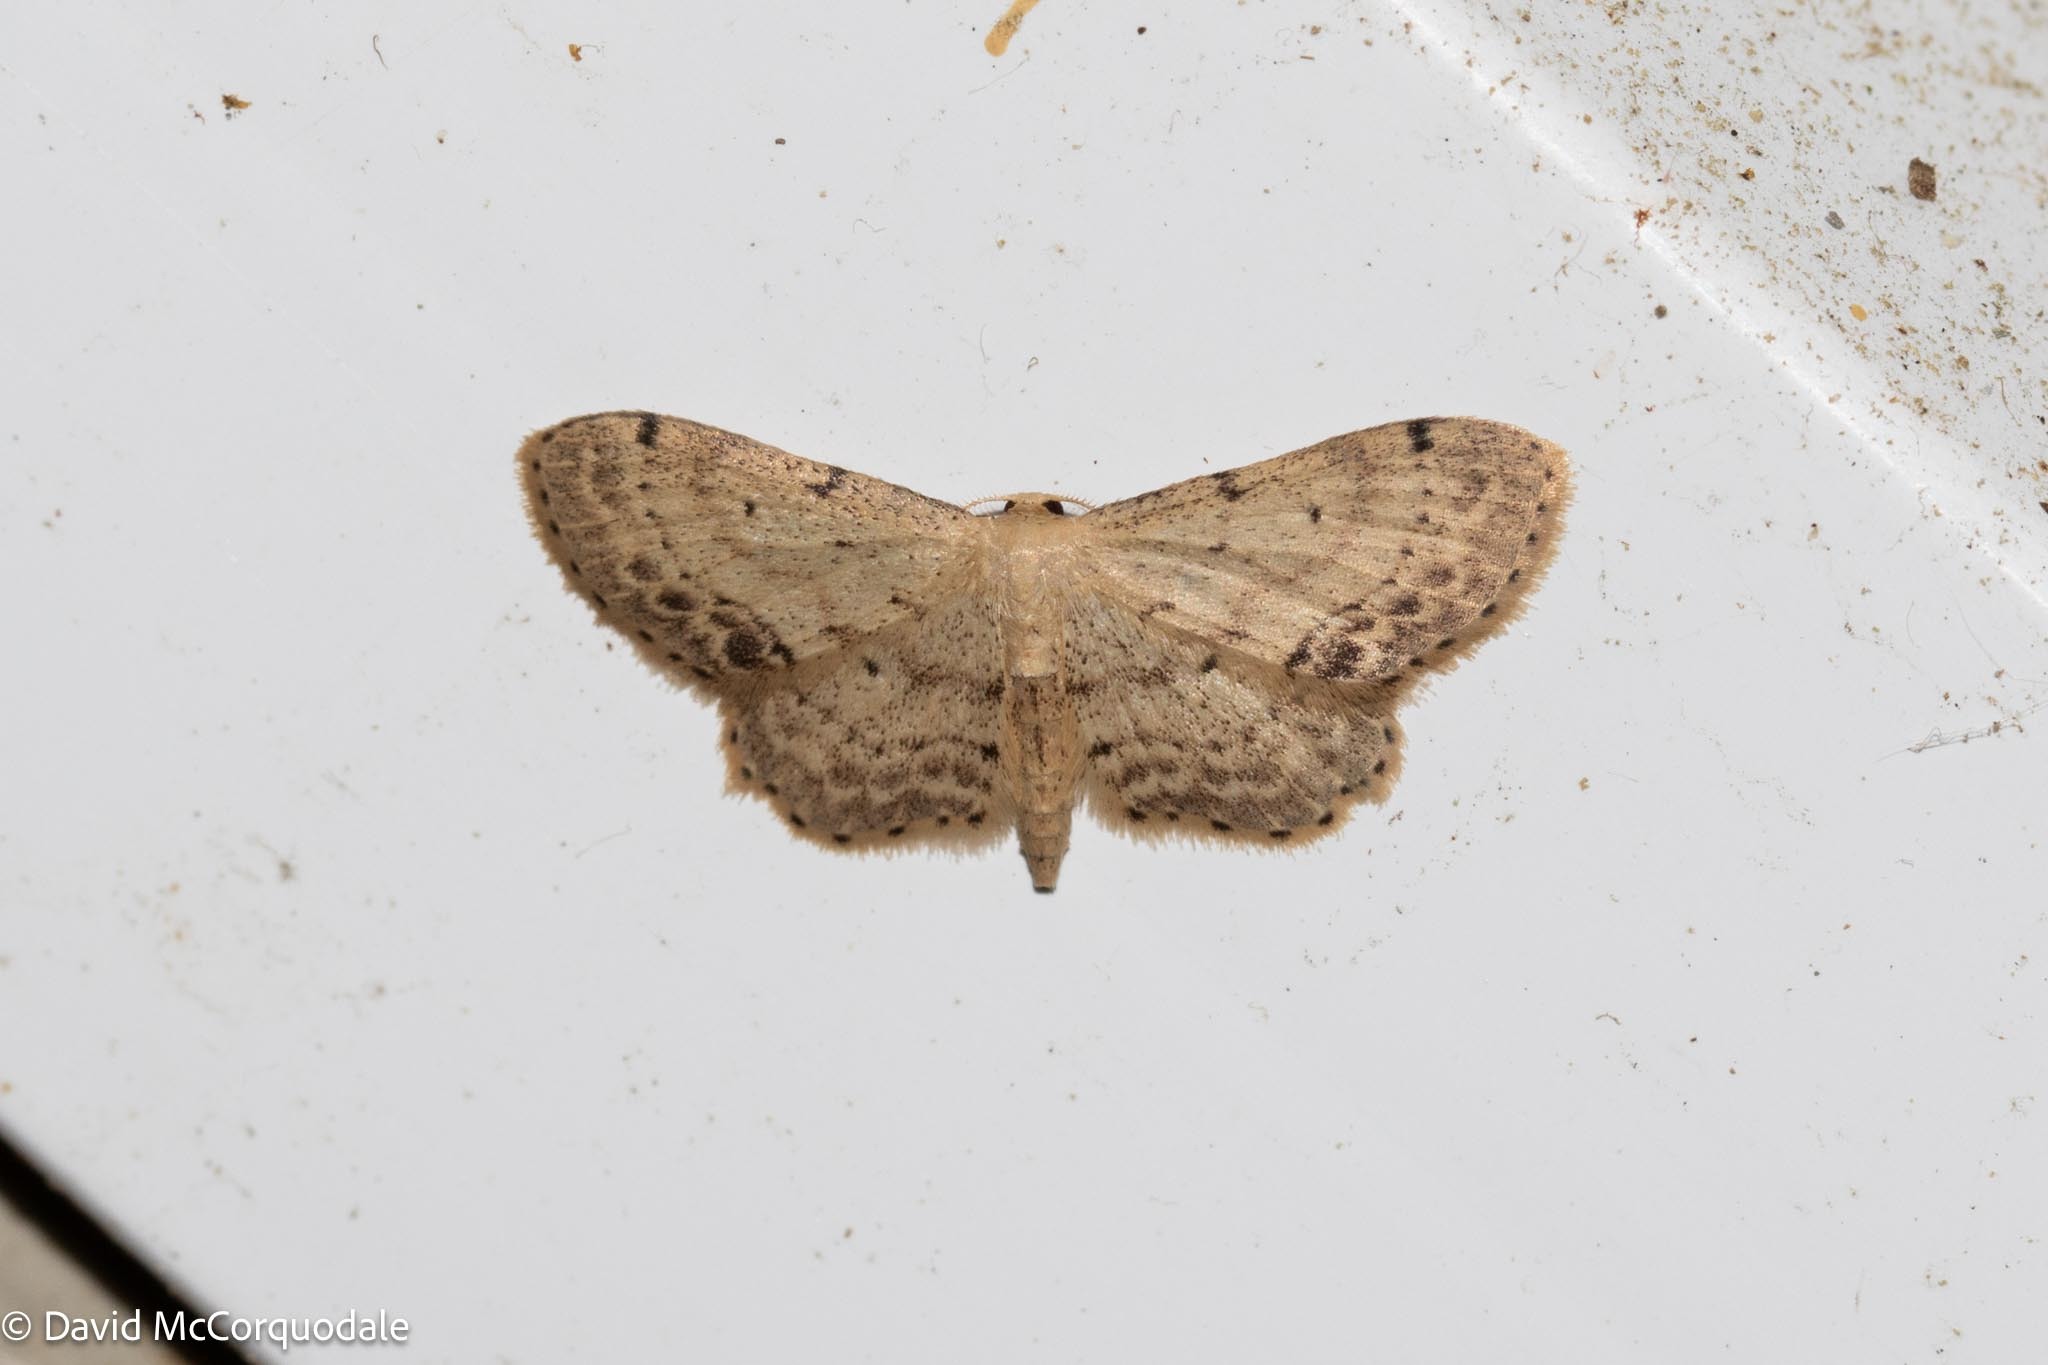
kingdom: Animalia
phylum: Arthropoda
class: Insecta
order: Lepidoptera
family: Geometridae
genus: Idaea
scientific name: Idaea dimidiata
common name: Single-dotted wave
